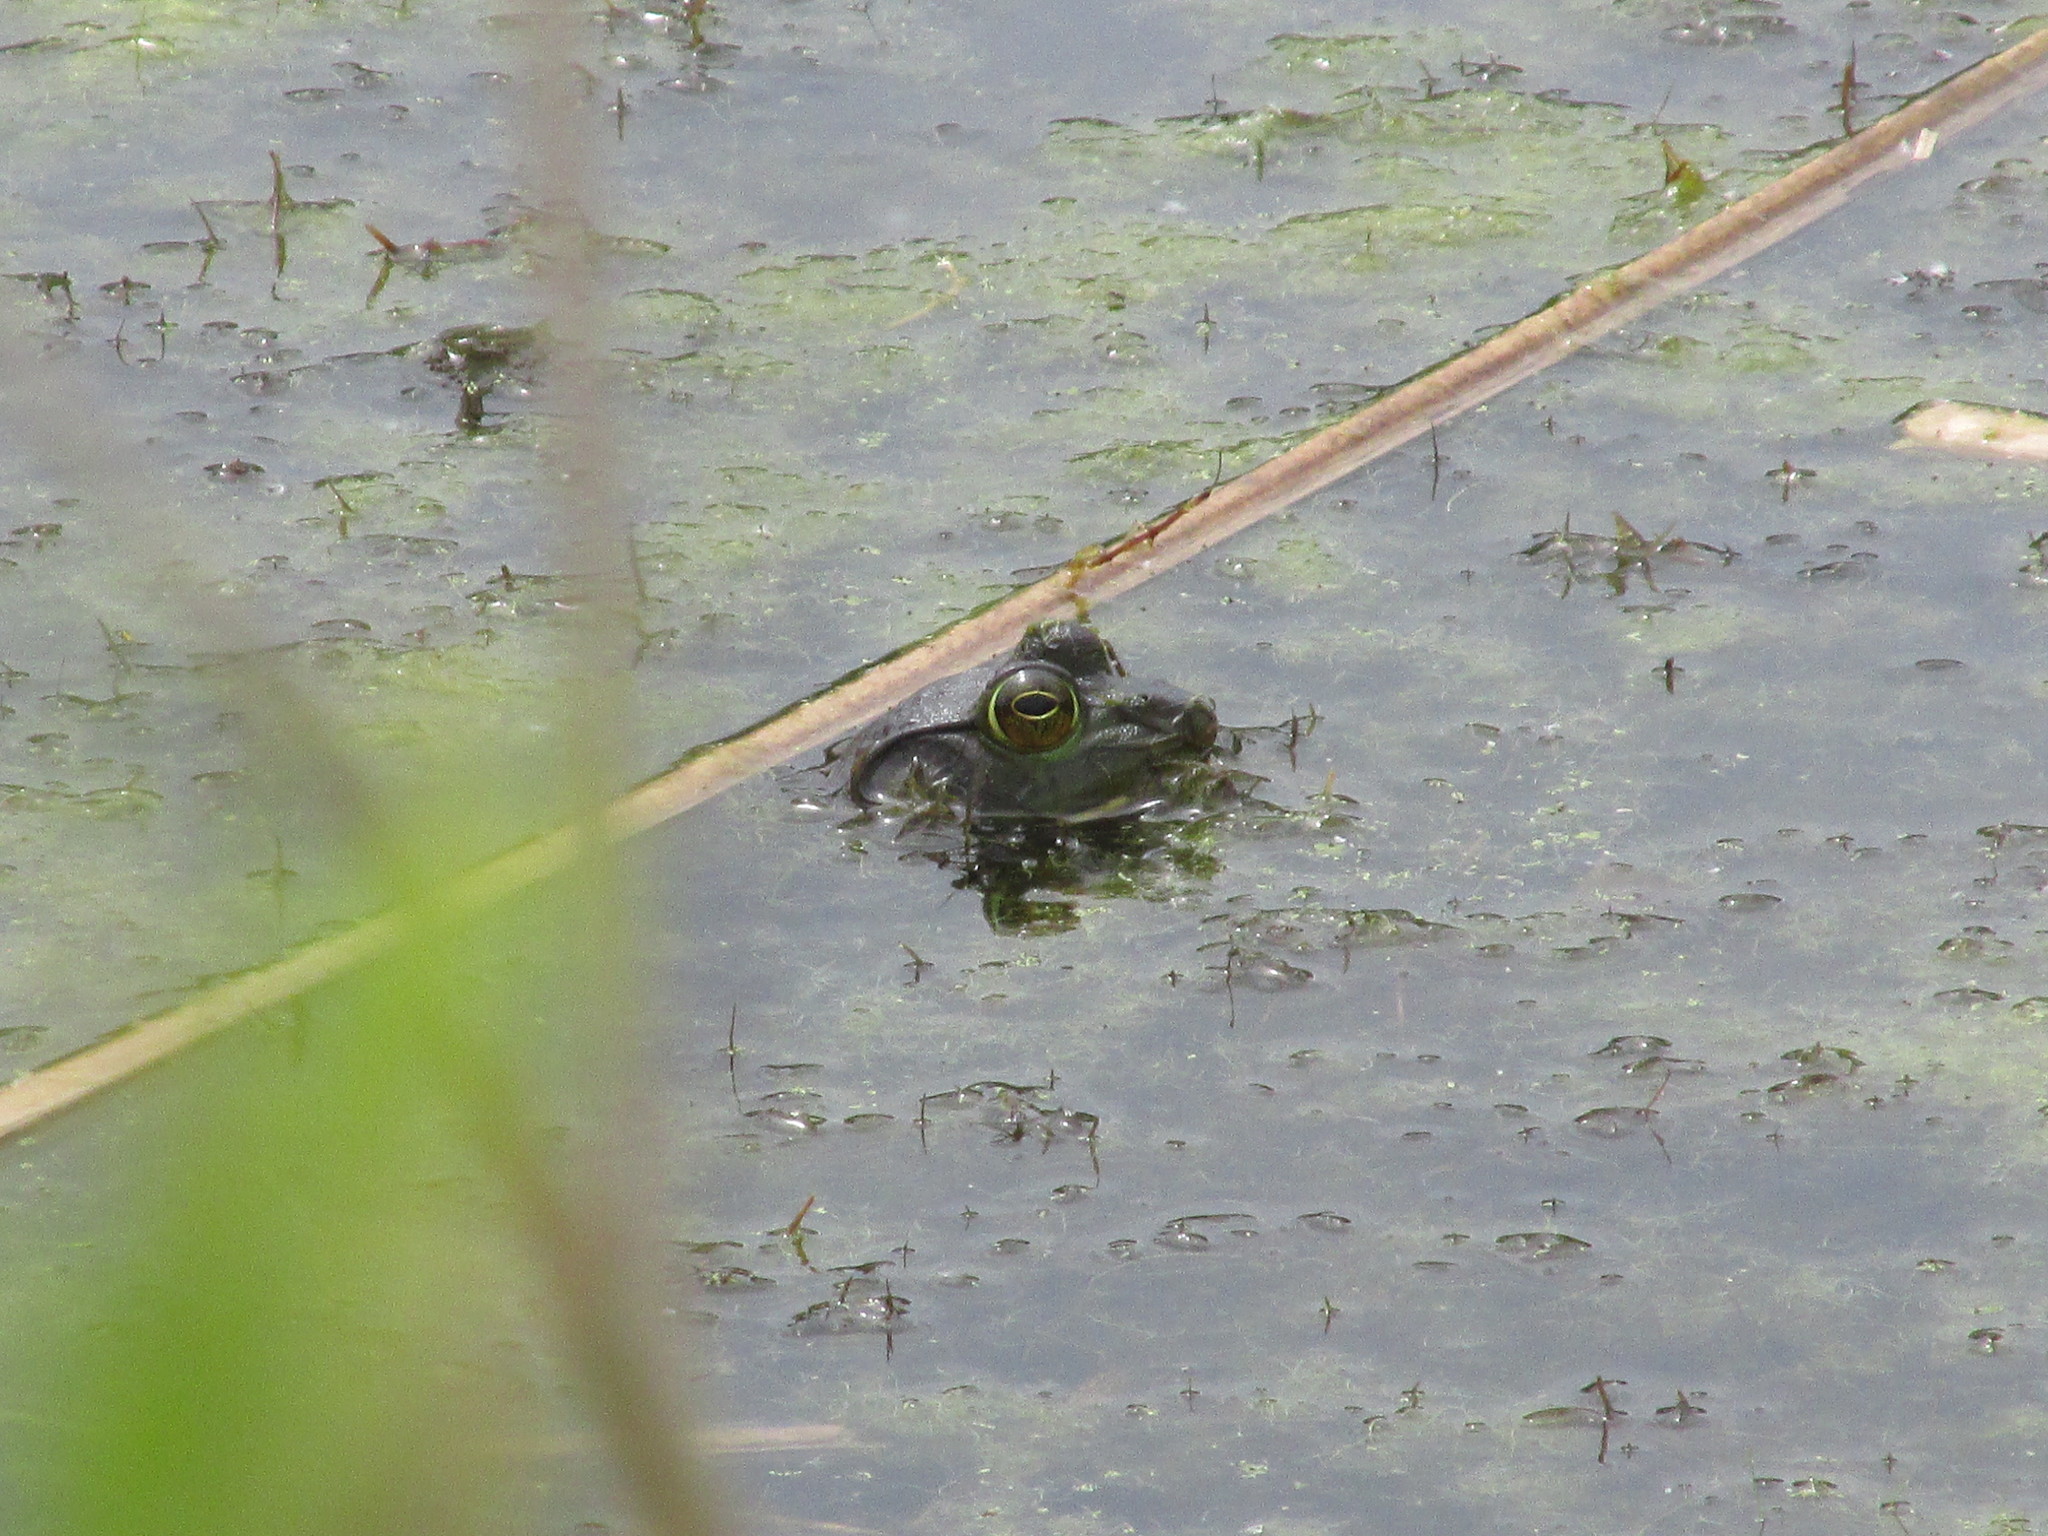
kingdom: Animalia
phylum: Chordata
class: Amphibia
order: Anura
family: Ranidae
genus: Lithobates
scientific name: Lithobates catesbeianus
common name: American bullfrog
